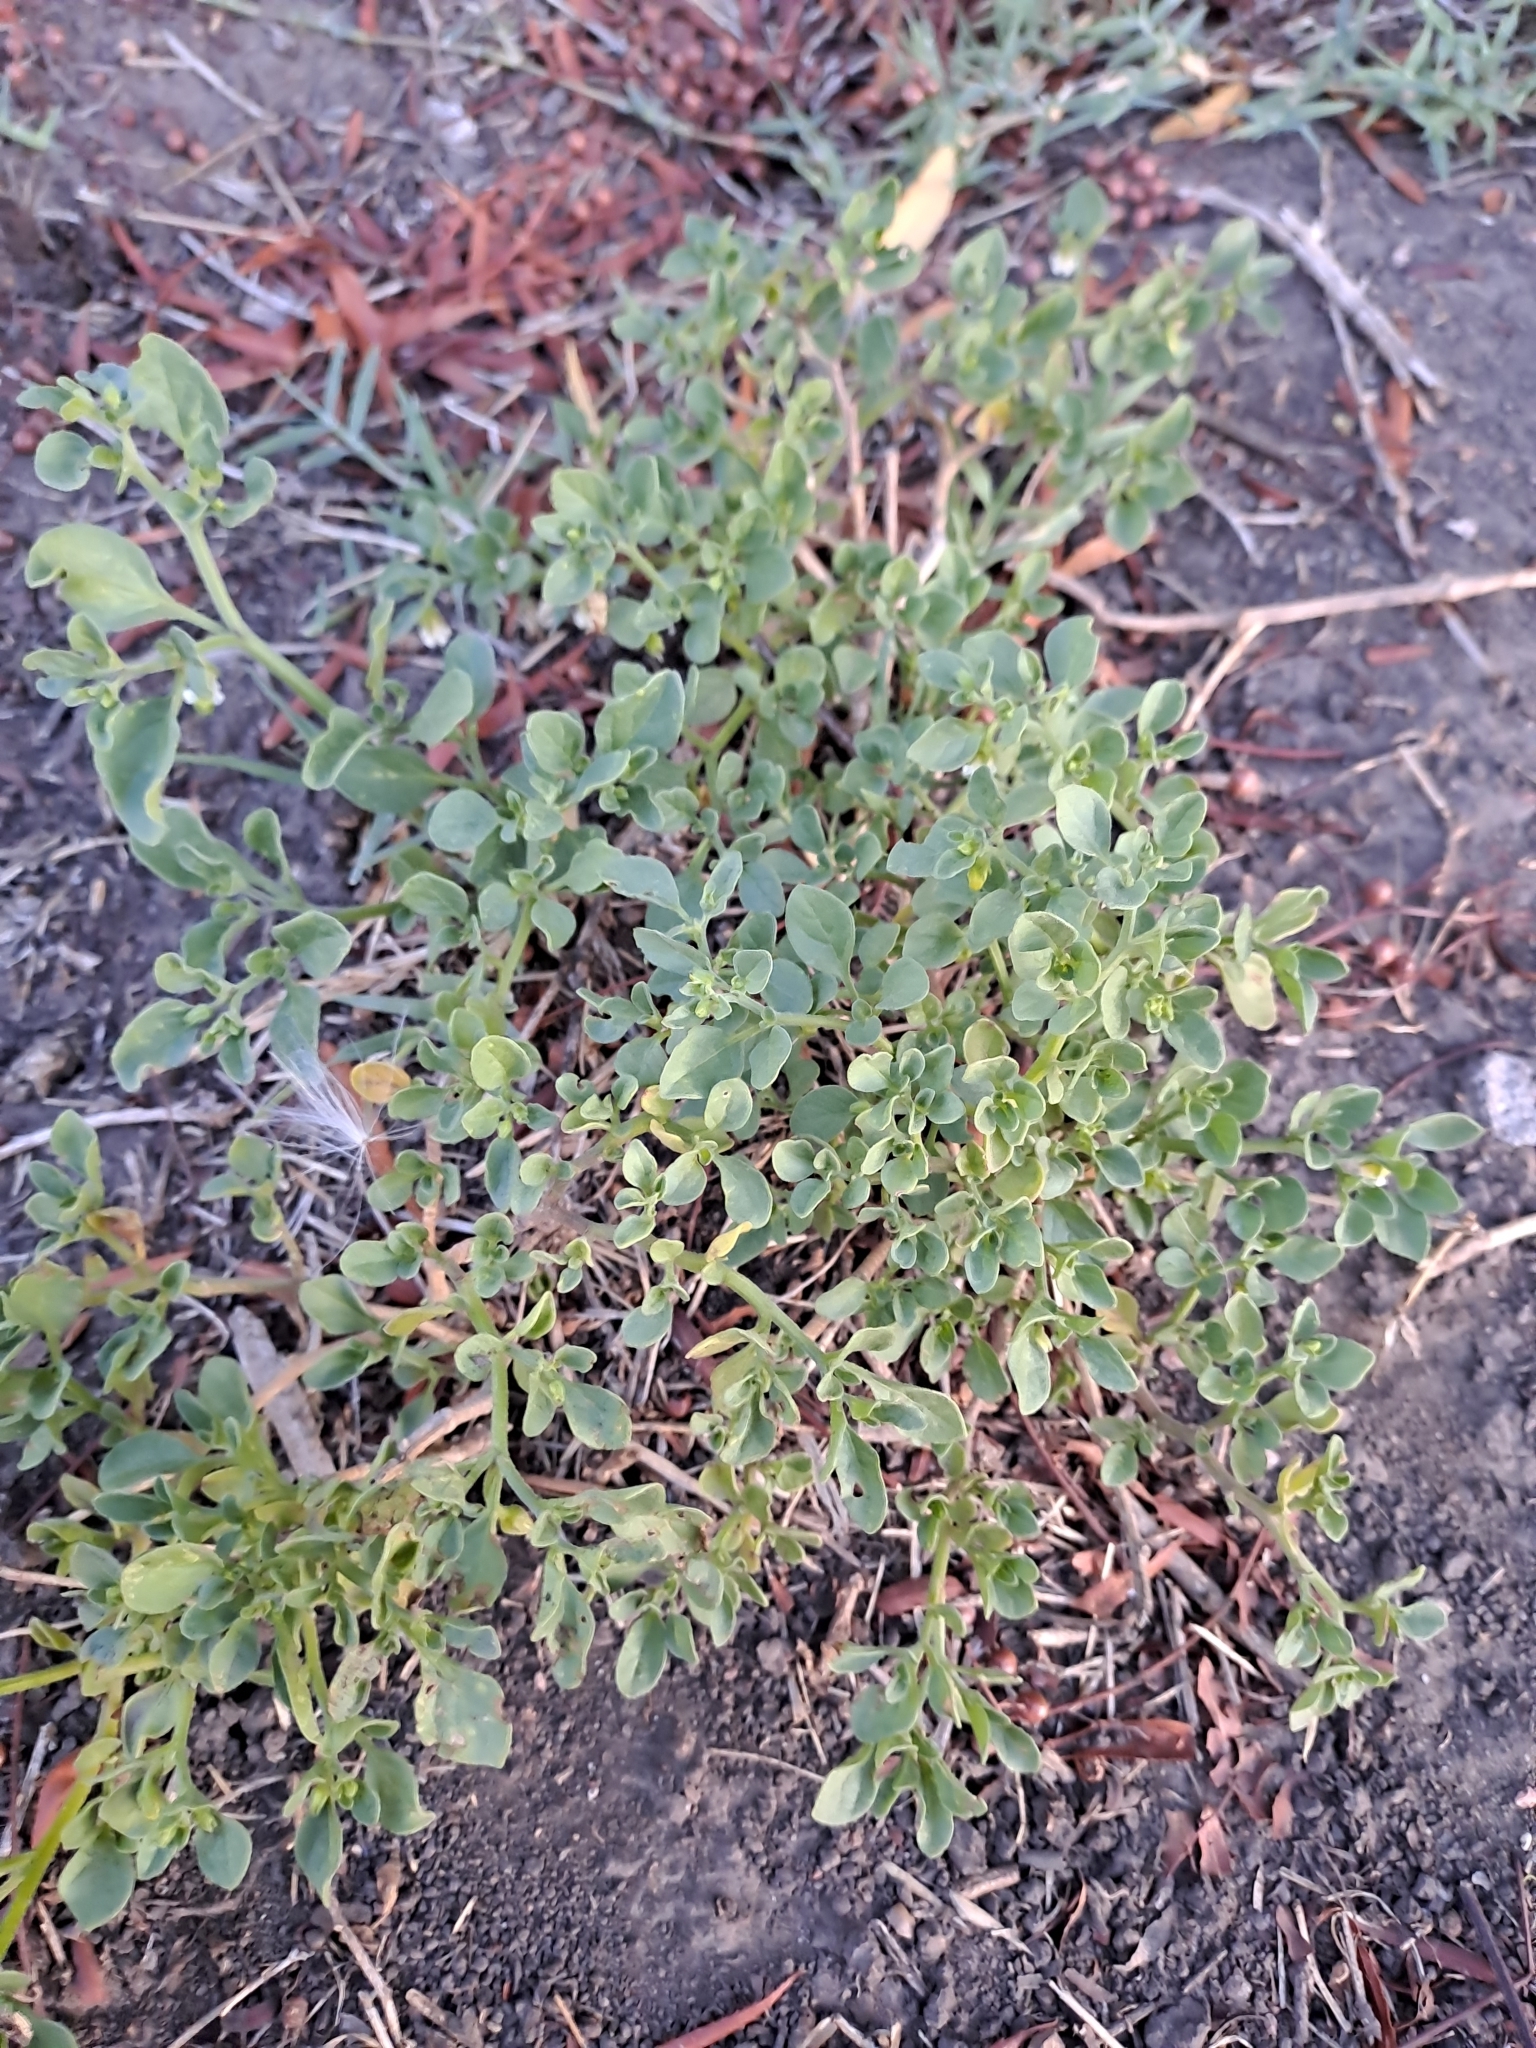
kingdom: Plantae
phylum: Tracheophyta
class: Magnoliopsida
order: Solanales
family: Solanaceae
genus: Salpichroa
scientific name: Salpichroa origanifolia
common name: Lily-of-the-valley-vine
